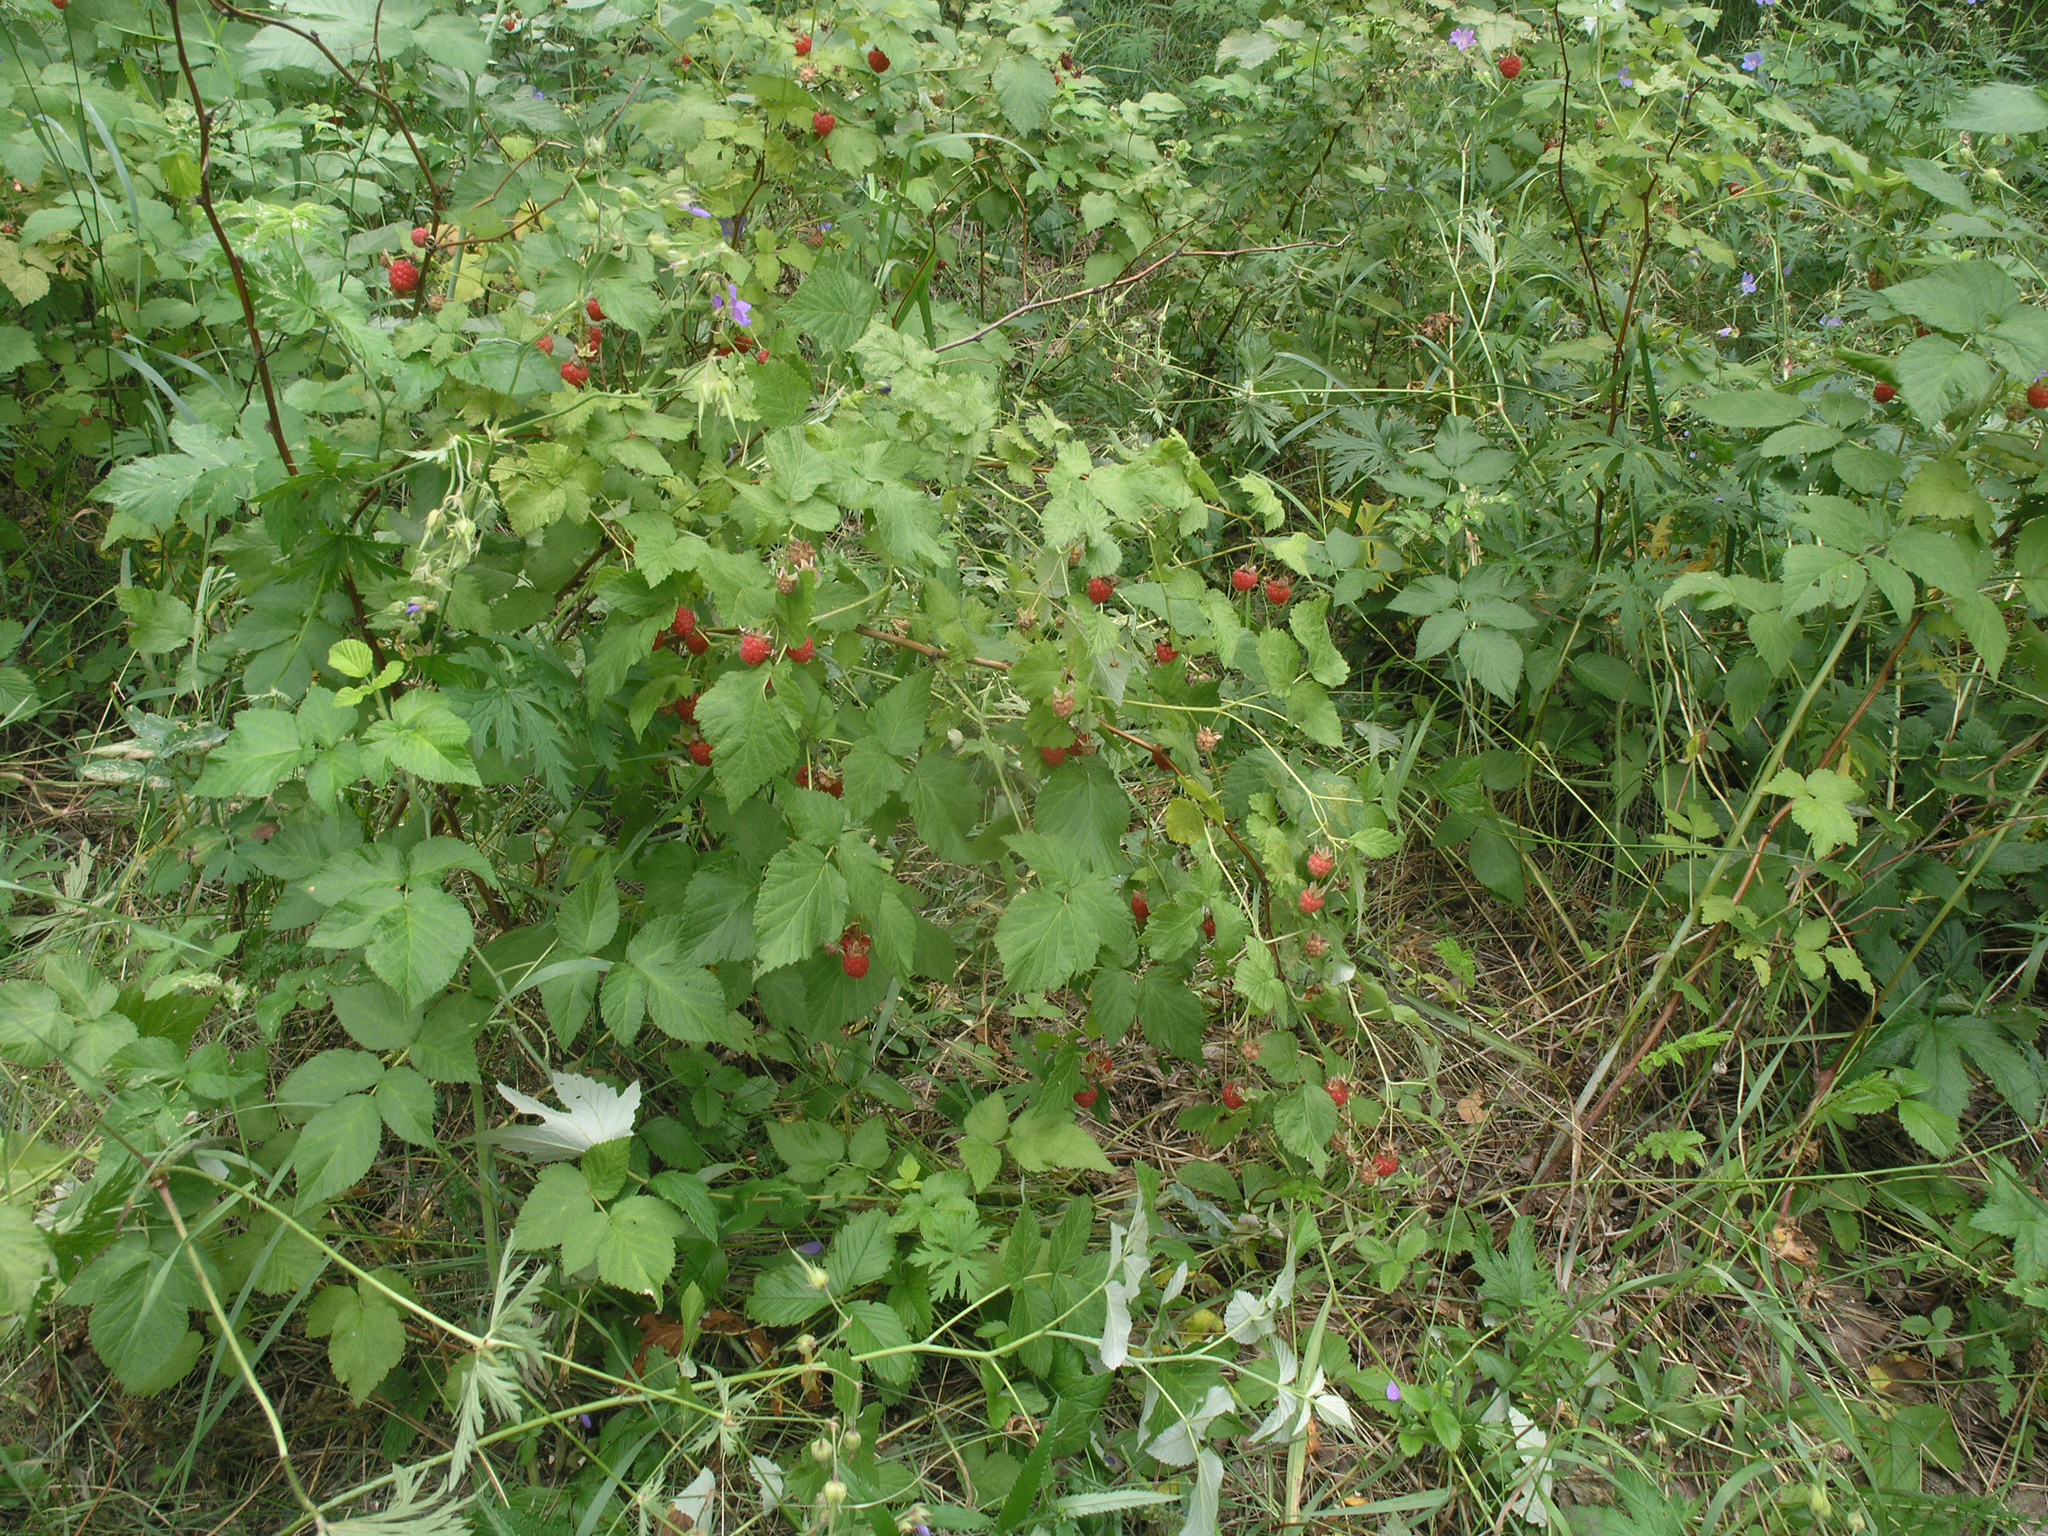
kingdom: Plantae
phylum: Tracheophyta
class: Magnoliopsida
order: Rosales
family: Rosaceae
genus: Rubus
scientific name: Rubus idaeus
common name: Raspberry
